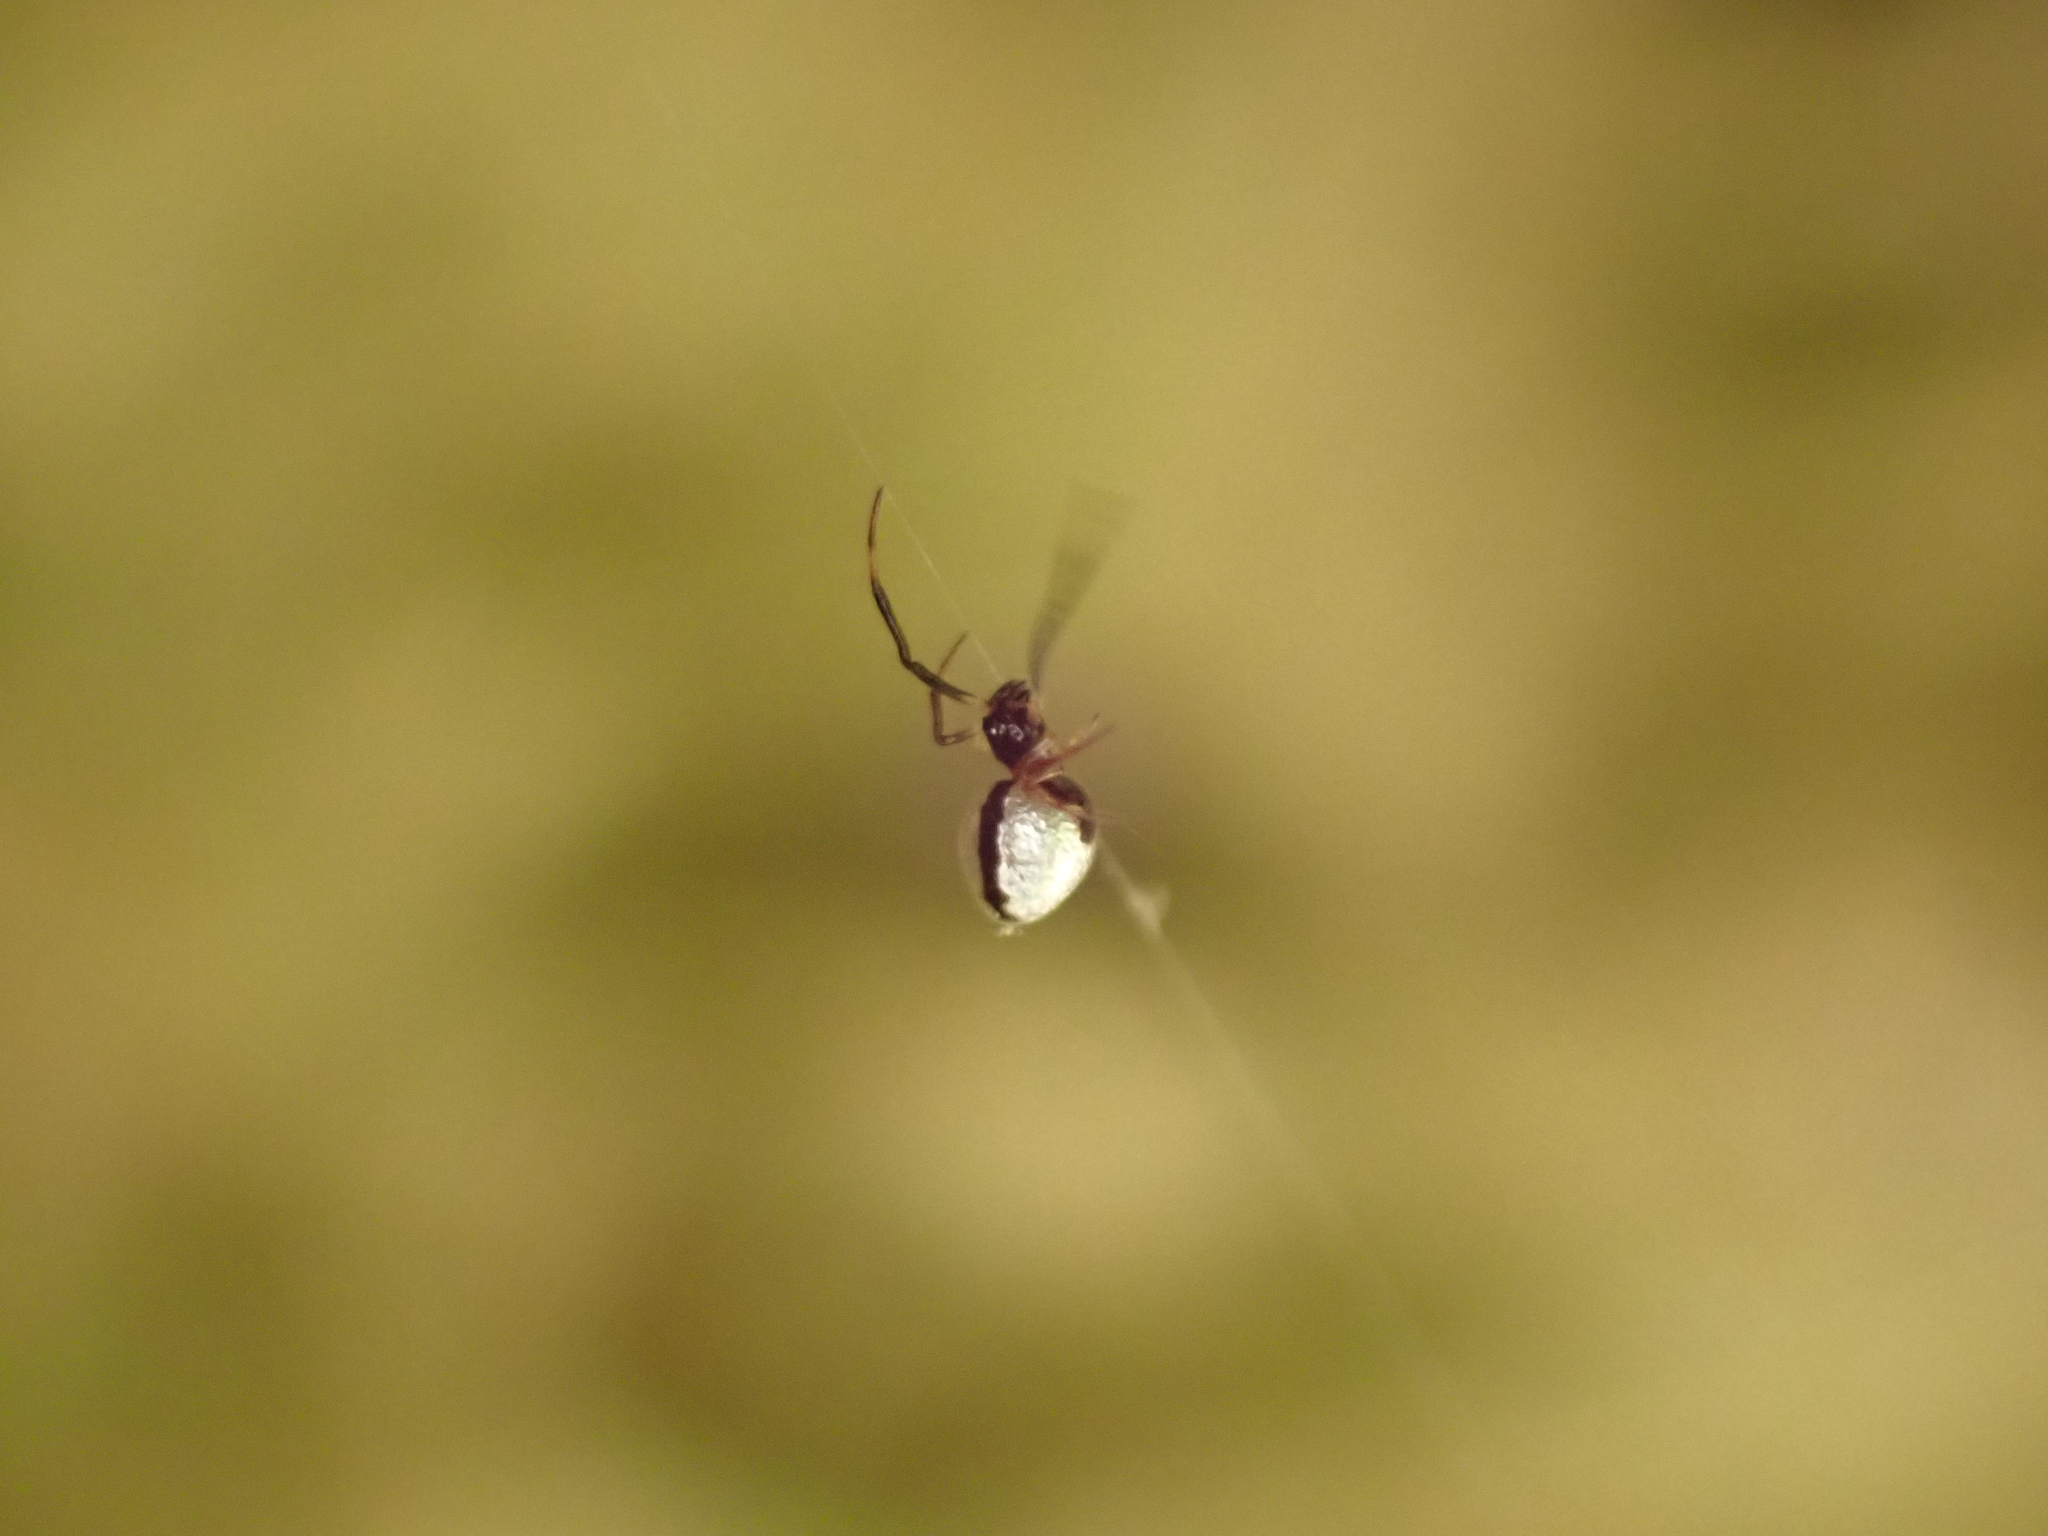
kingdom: Animalia
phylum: Arthropoda
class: Arachnida
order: Araneae
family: Theridiidae
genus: Argyrodes
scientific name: Argyrodes elevatus
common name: Cobweb spiders
